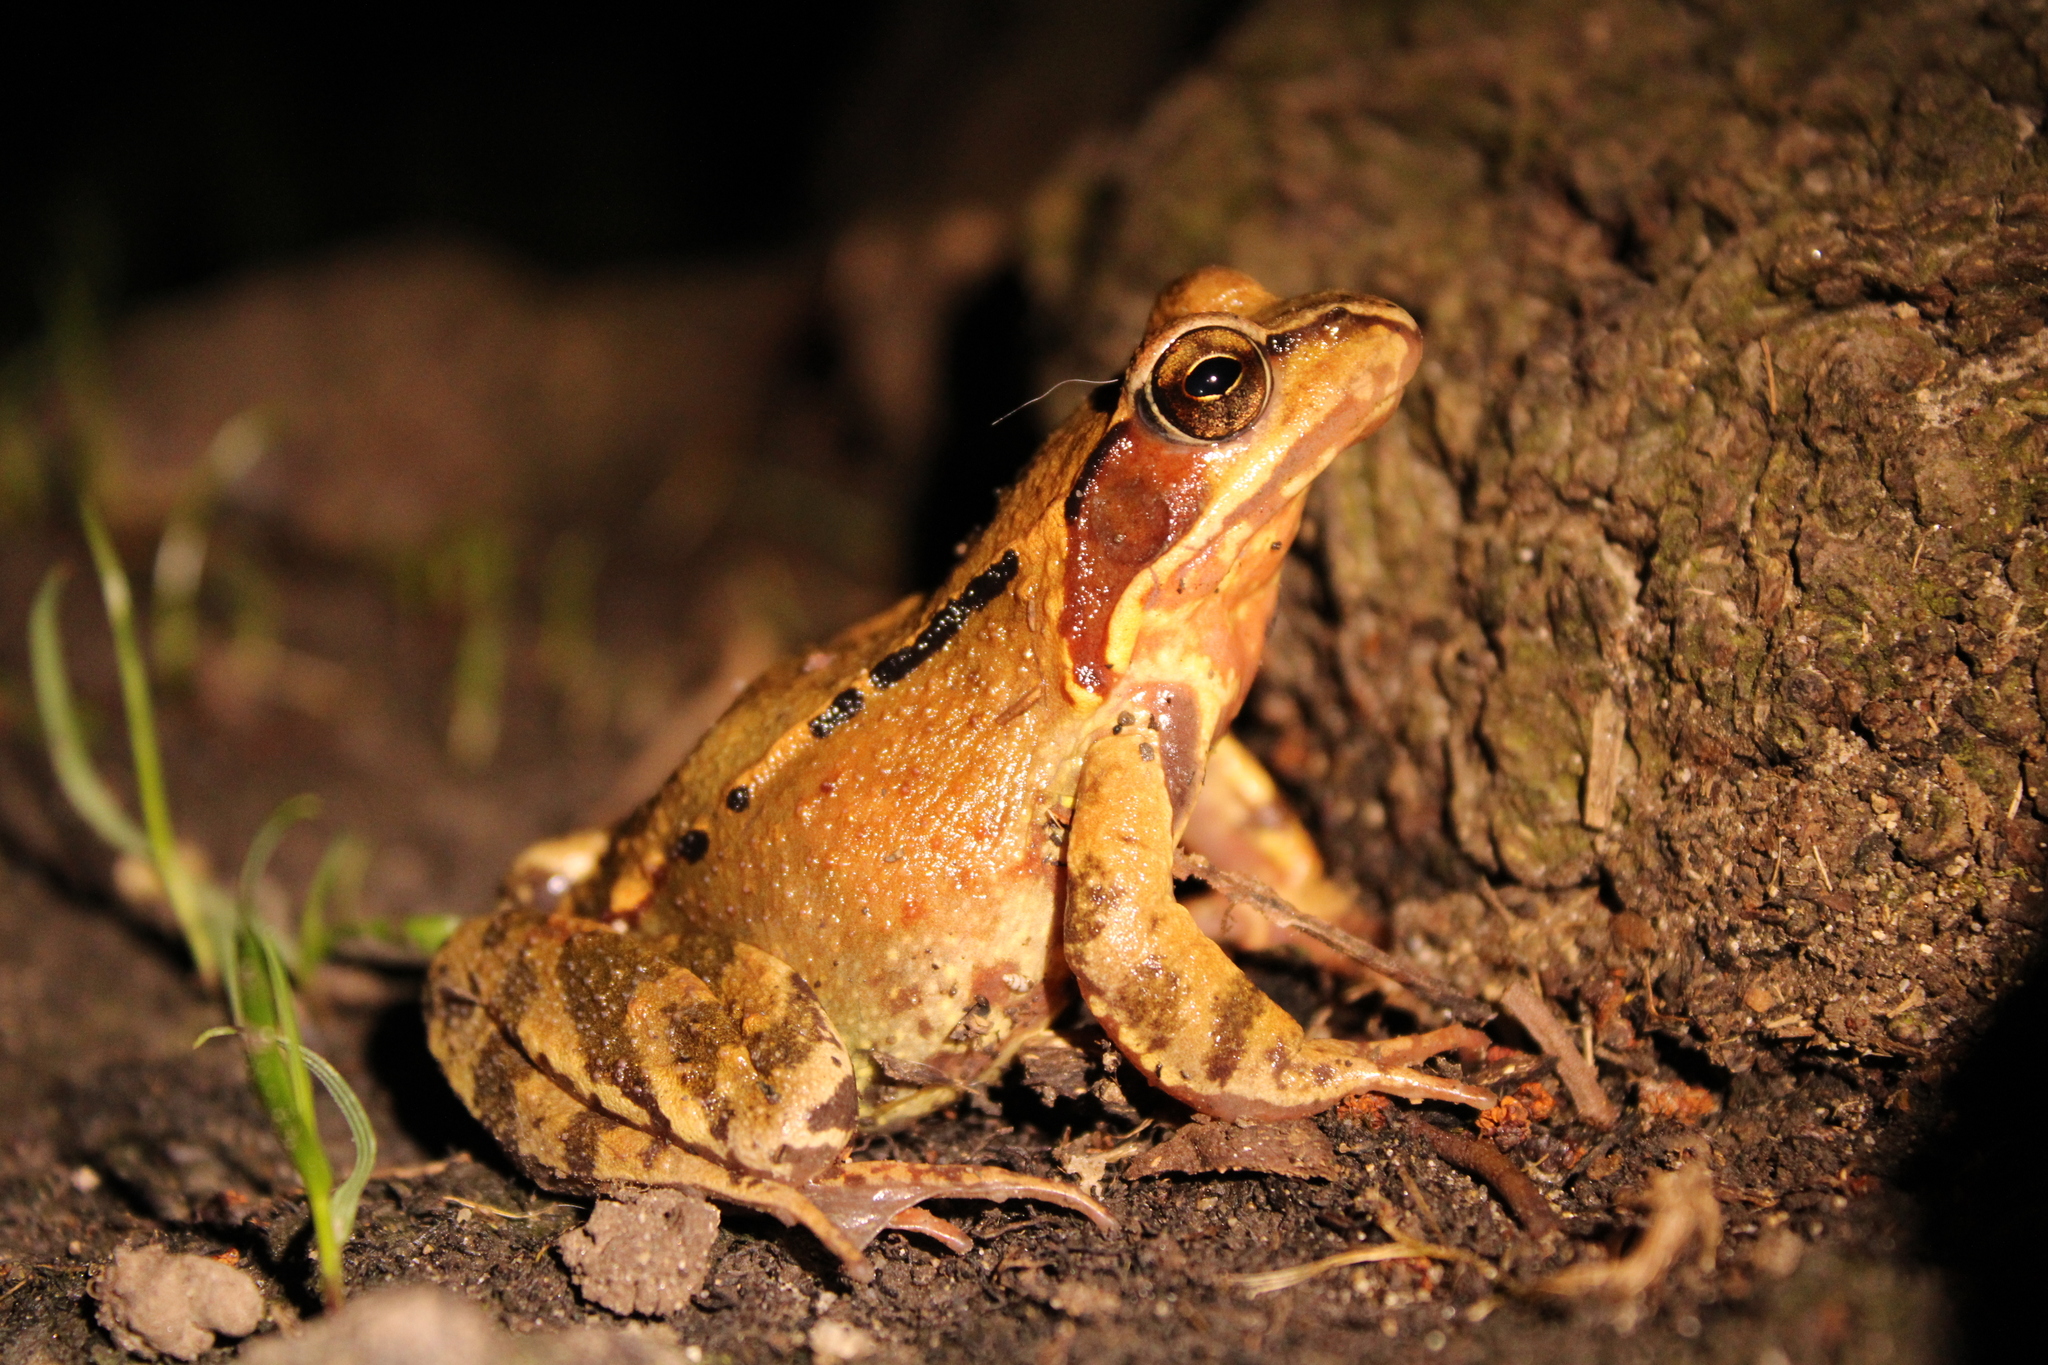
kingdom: Animalia
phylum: Chordata
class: Amphibia
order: Anura
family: Ranidae
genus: Rana
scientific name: Rana temporaria
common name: Common frog
